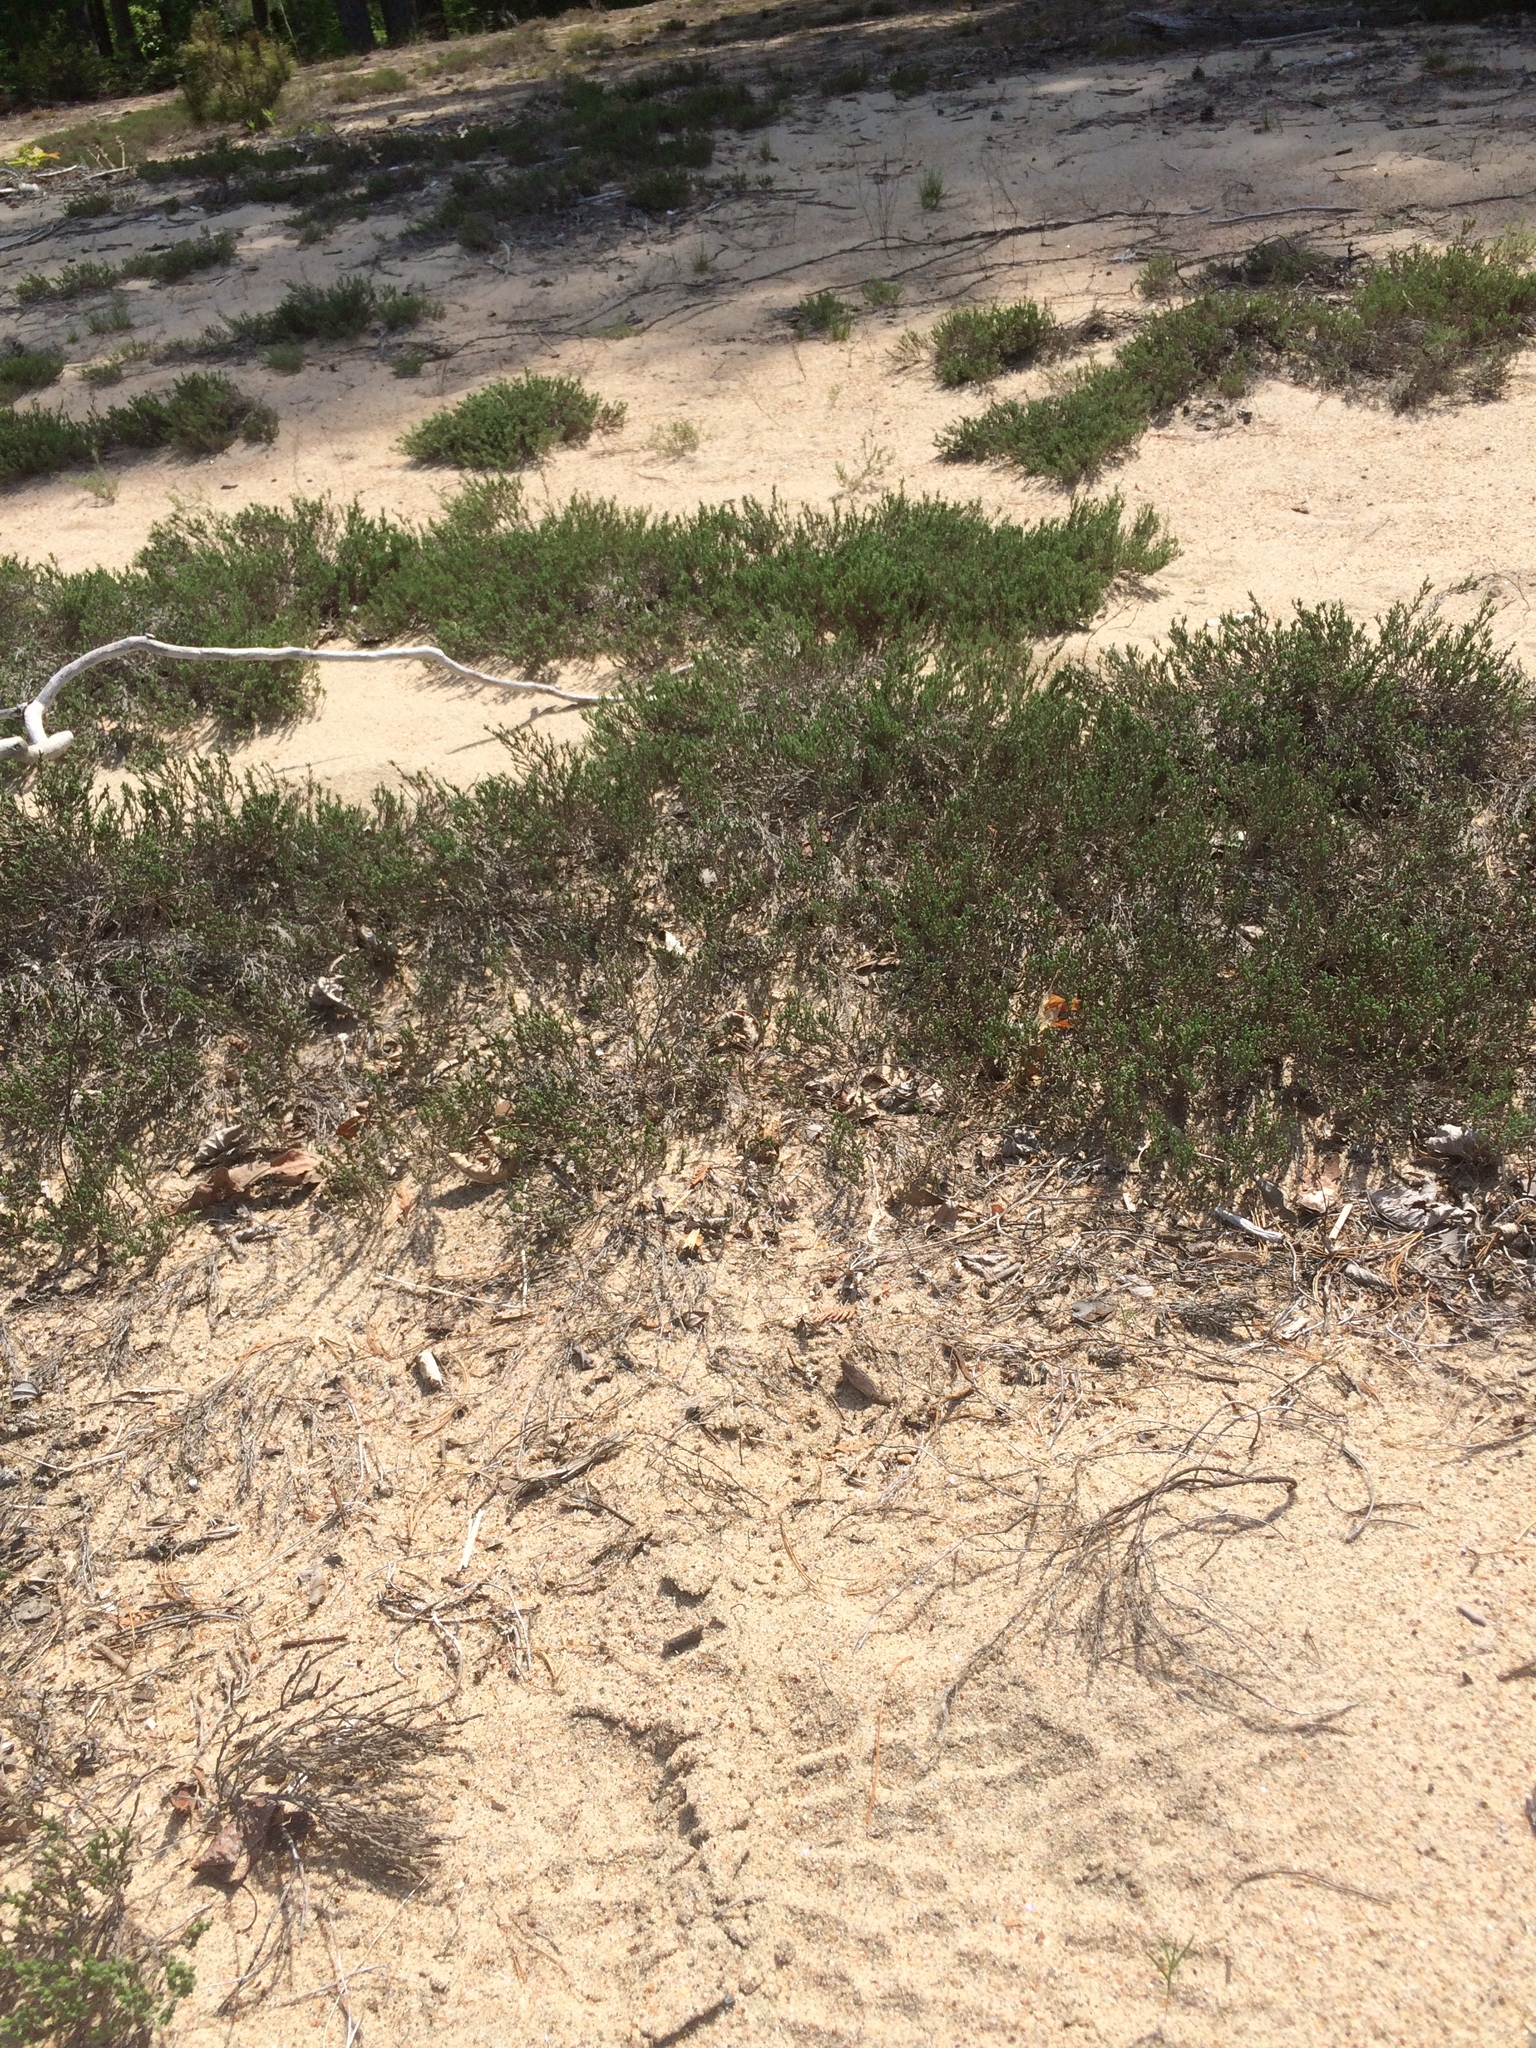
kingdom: Plantae
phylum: Tracheophyta
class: Magnoliopsida
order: Caryophyllales
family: Polygonaceae
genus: Polygonella
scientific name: Polygonella articulata
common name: Coastal jointweed
